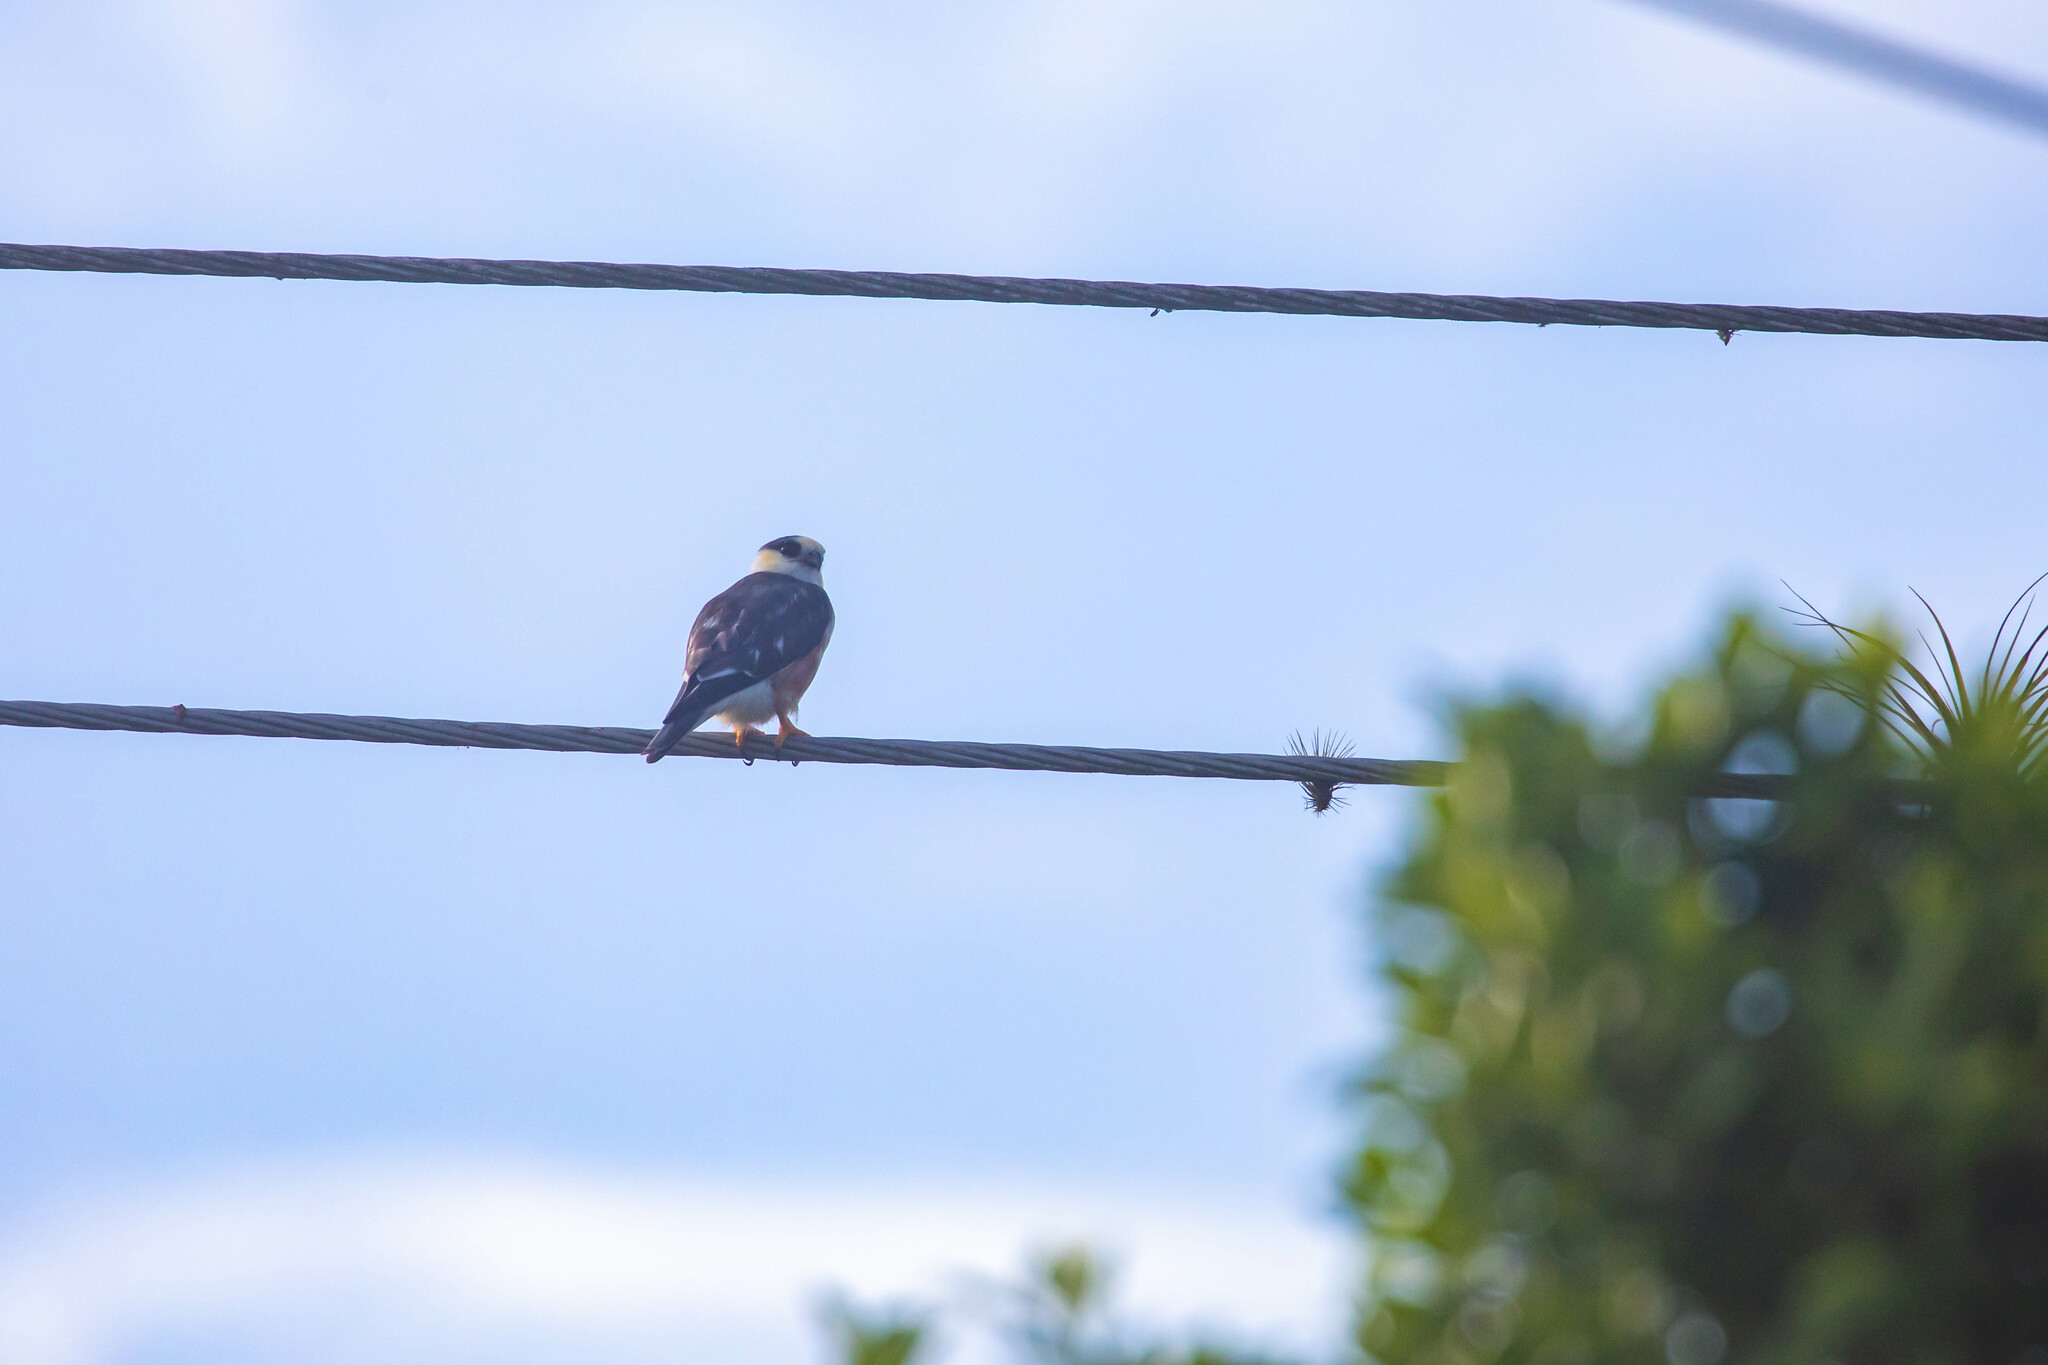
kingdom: Animalia
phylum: Chordata
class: Aves
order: Accipitriformes
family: Accipitridae
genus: Gampsonyx
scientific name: Gampsonyx swainsonii
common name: Pearl kite
